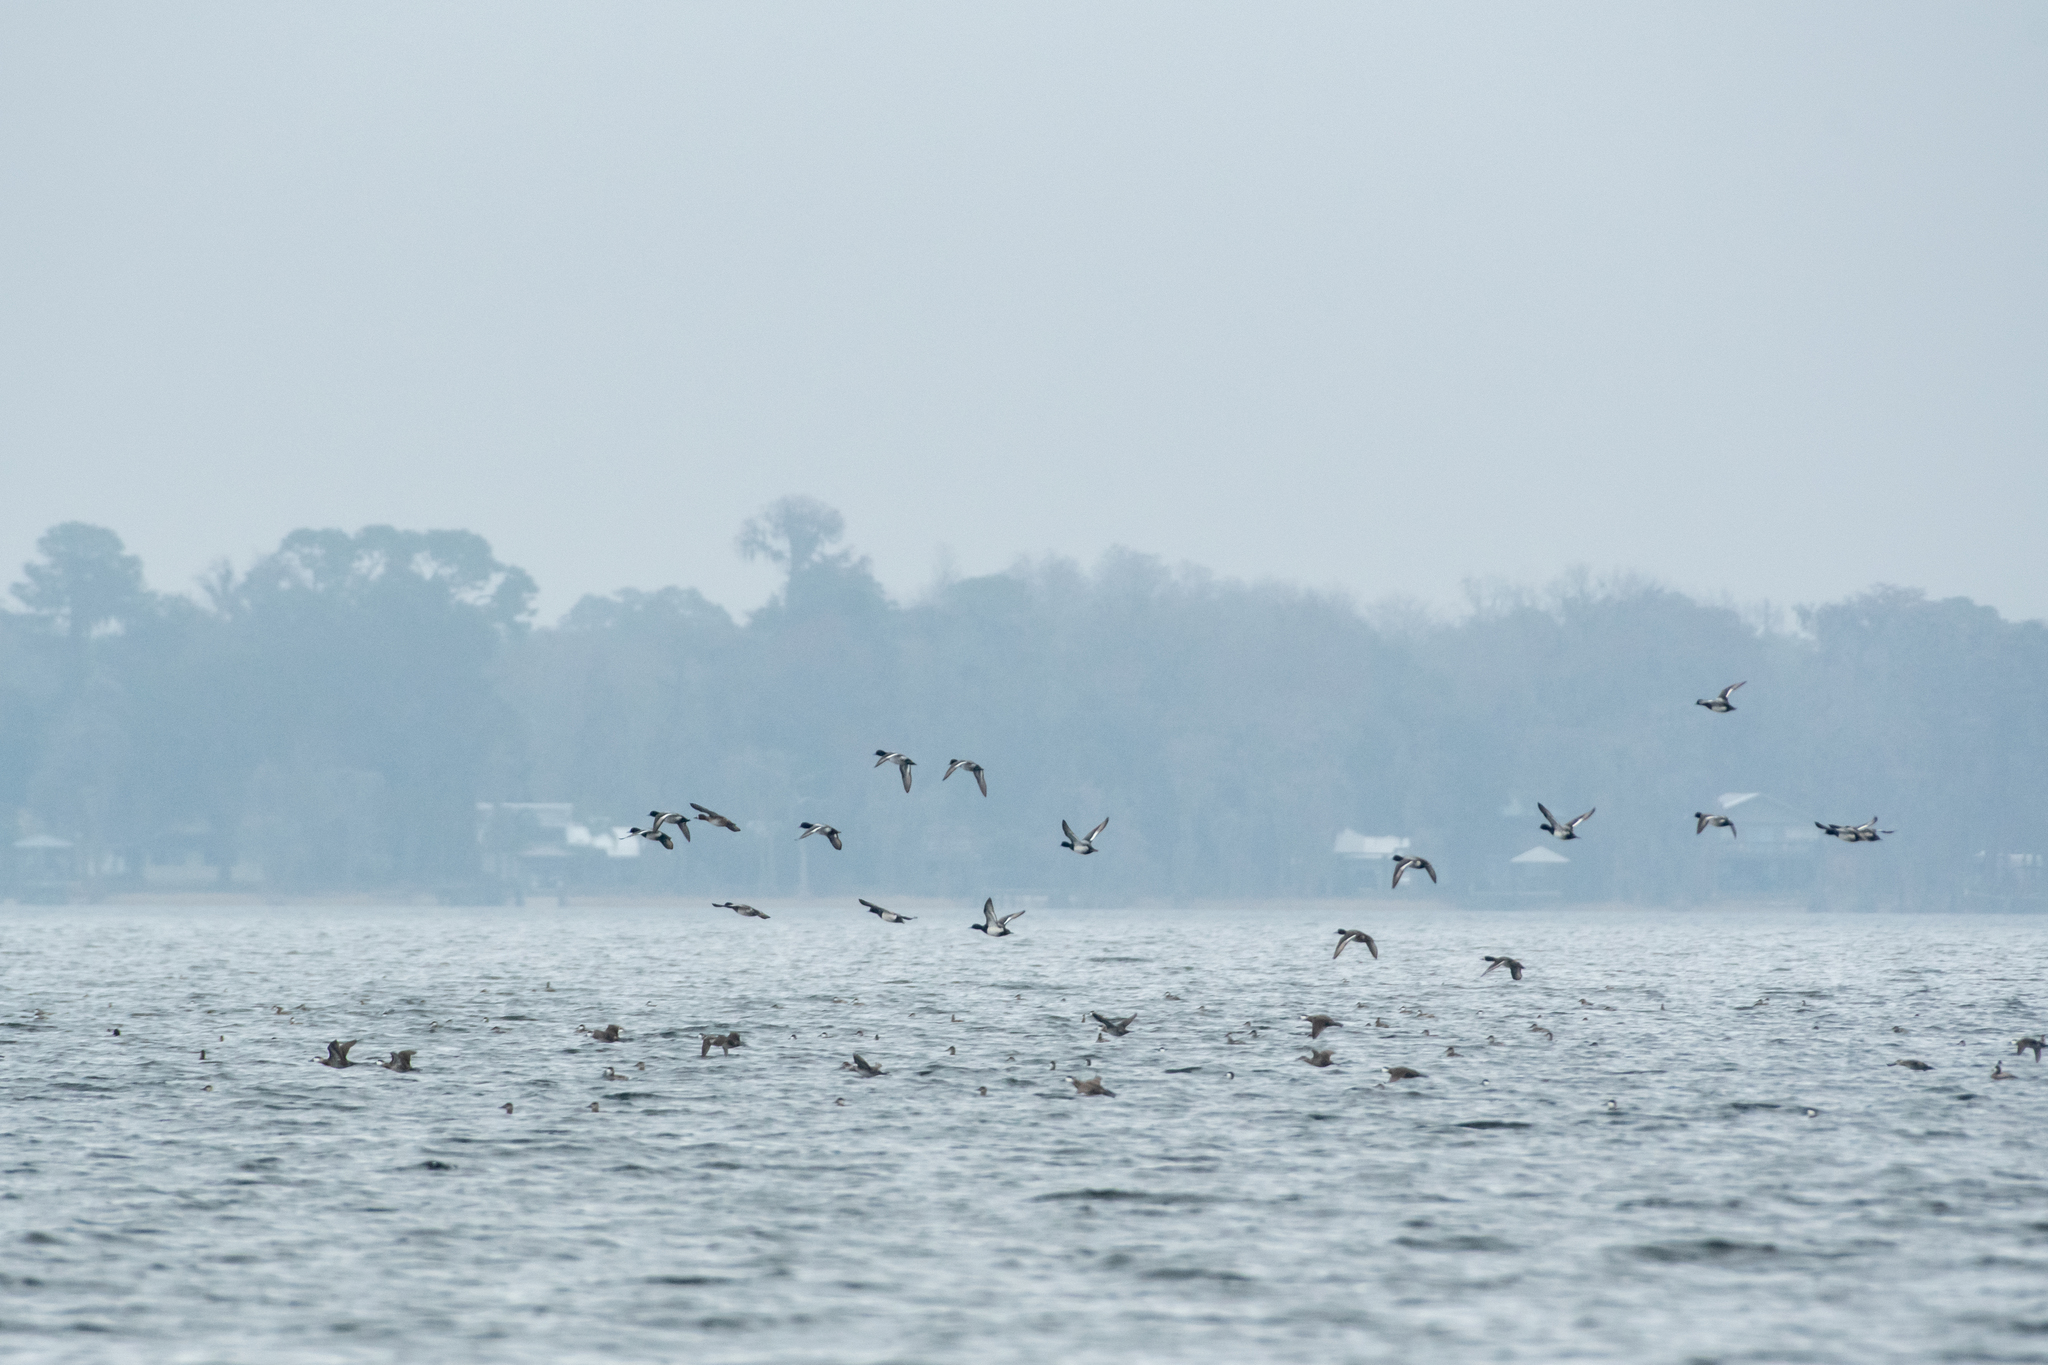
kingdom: Animalia
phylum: Chordata
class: Aves
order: Anseriformes
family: Anatidae
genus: Aythya
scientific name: Aythya affinis
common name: Lesser scaup
